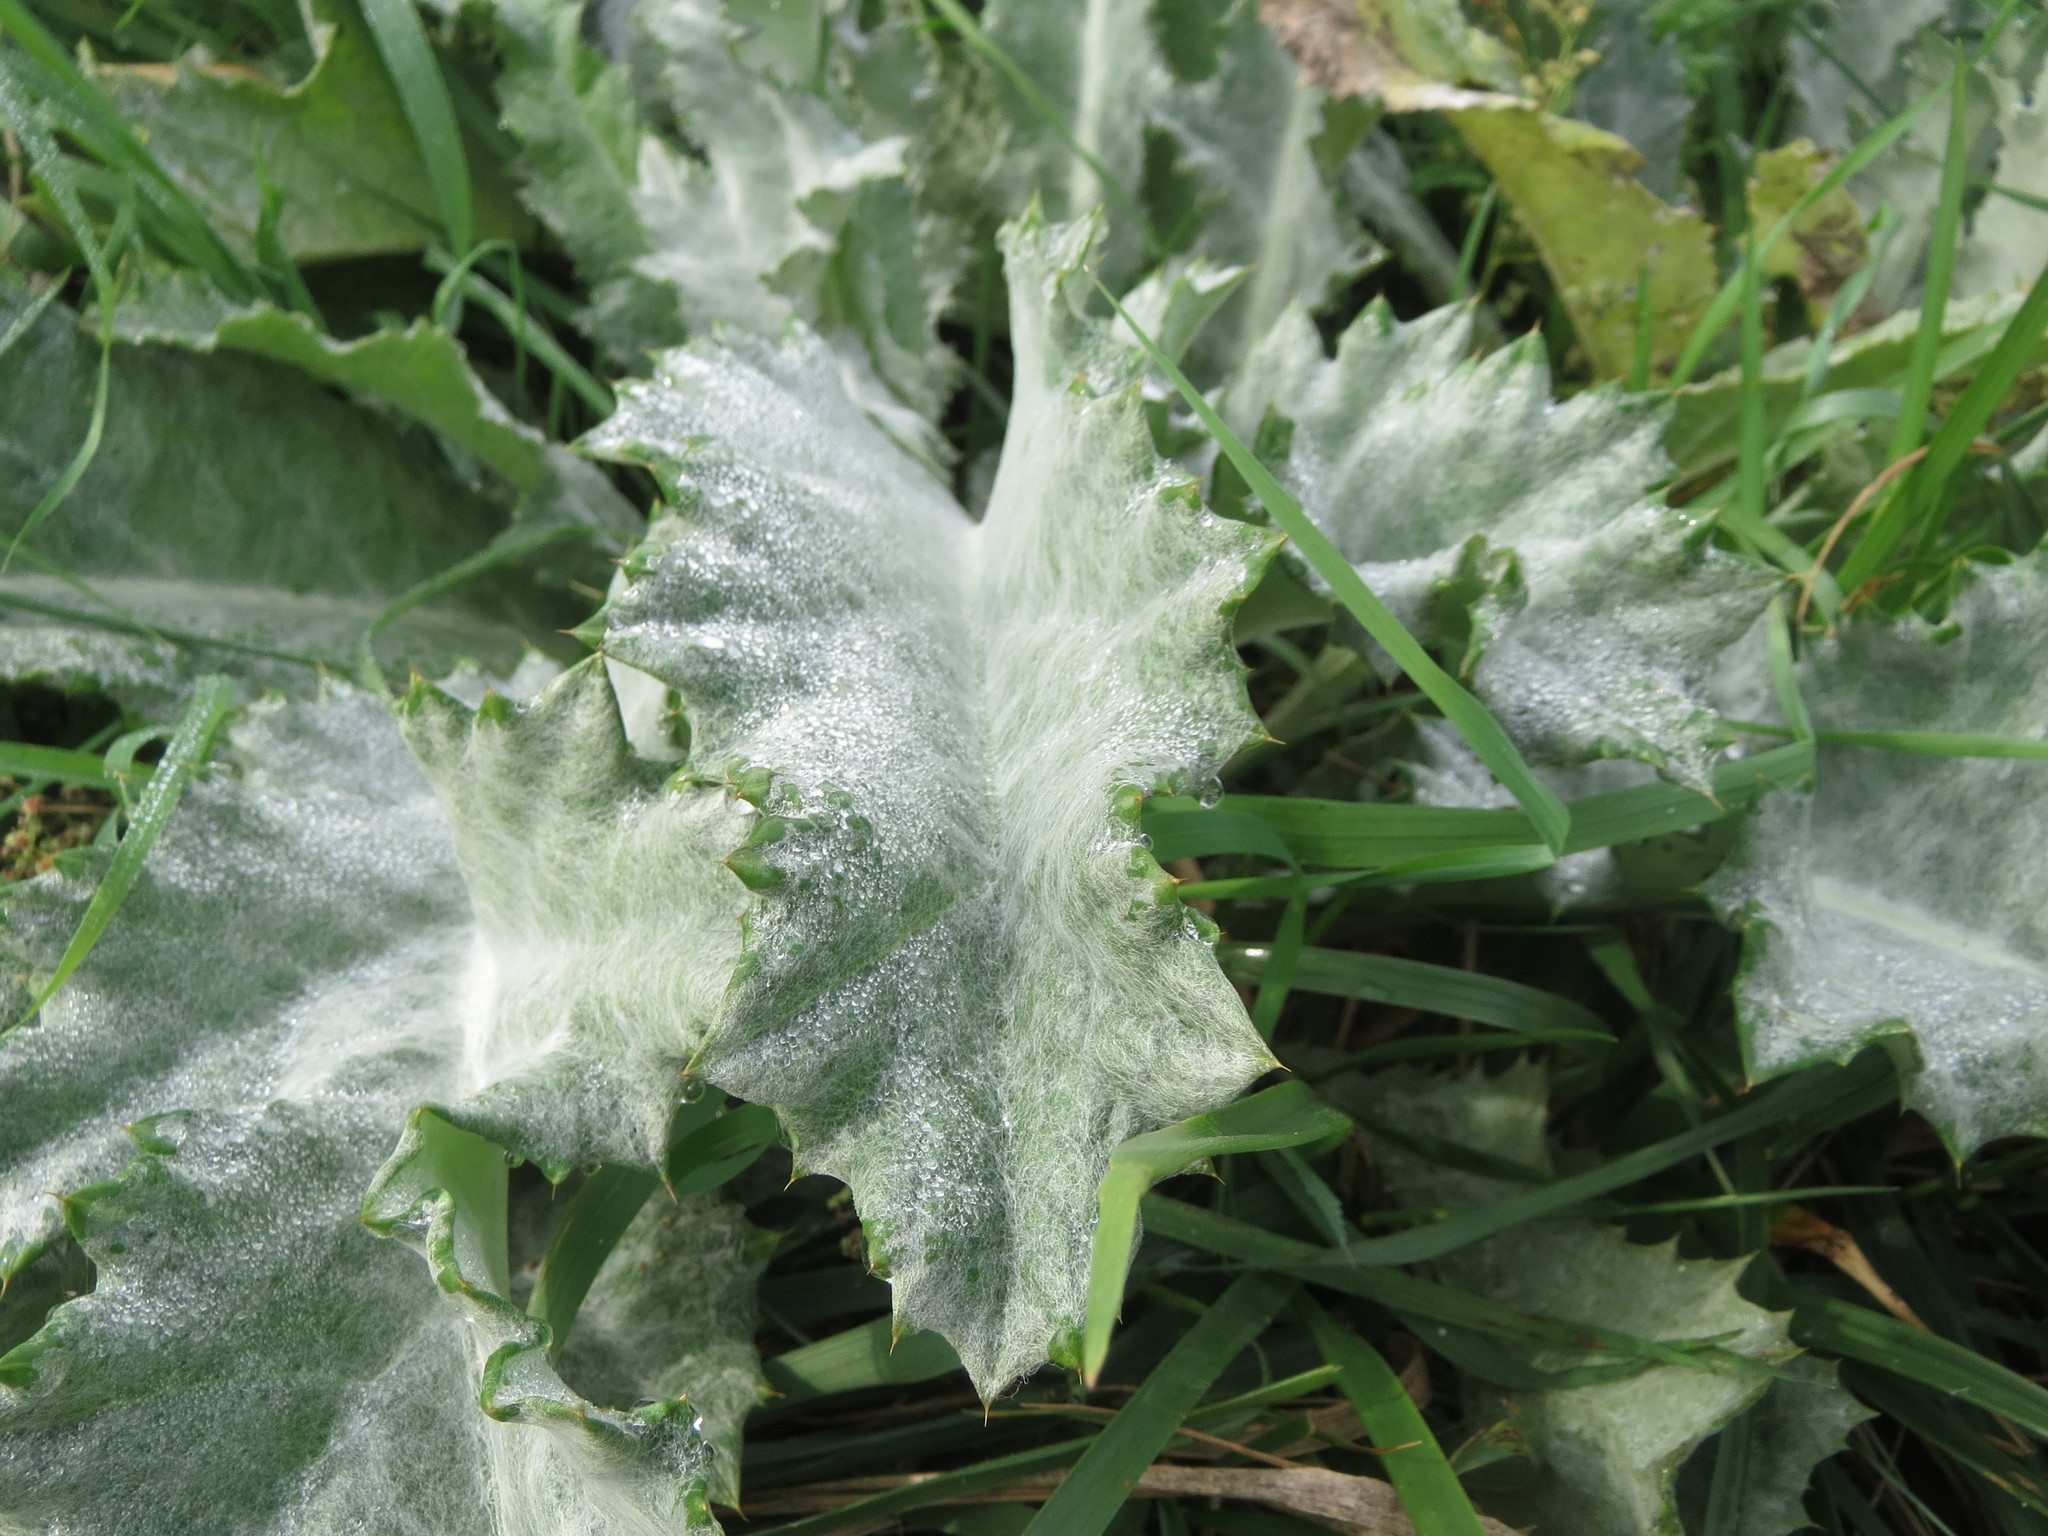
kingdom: Plantae
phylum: Tracheophyta
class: Magnoliopsida
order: Asterales
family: Asteraceae
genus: Onopordum
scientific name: Onopordum acanthium
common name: Scotch thistle
